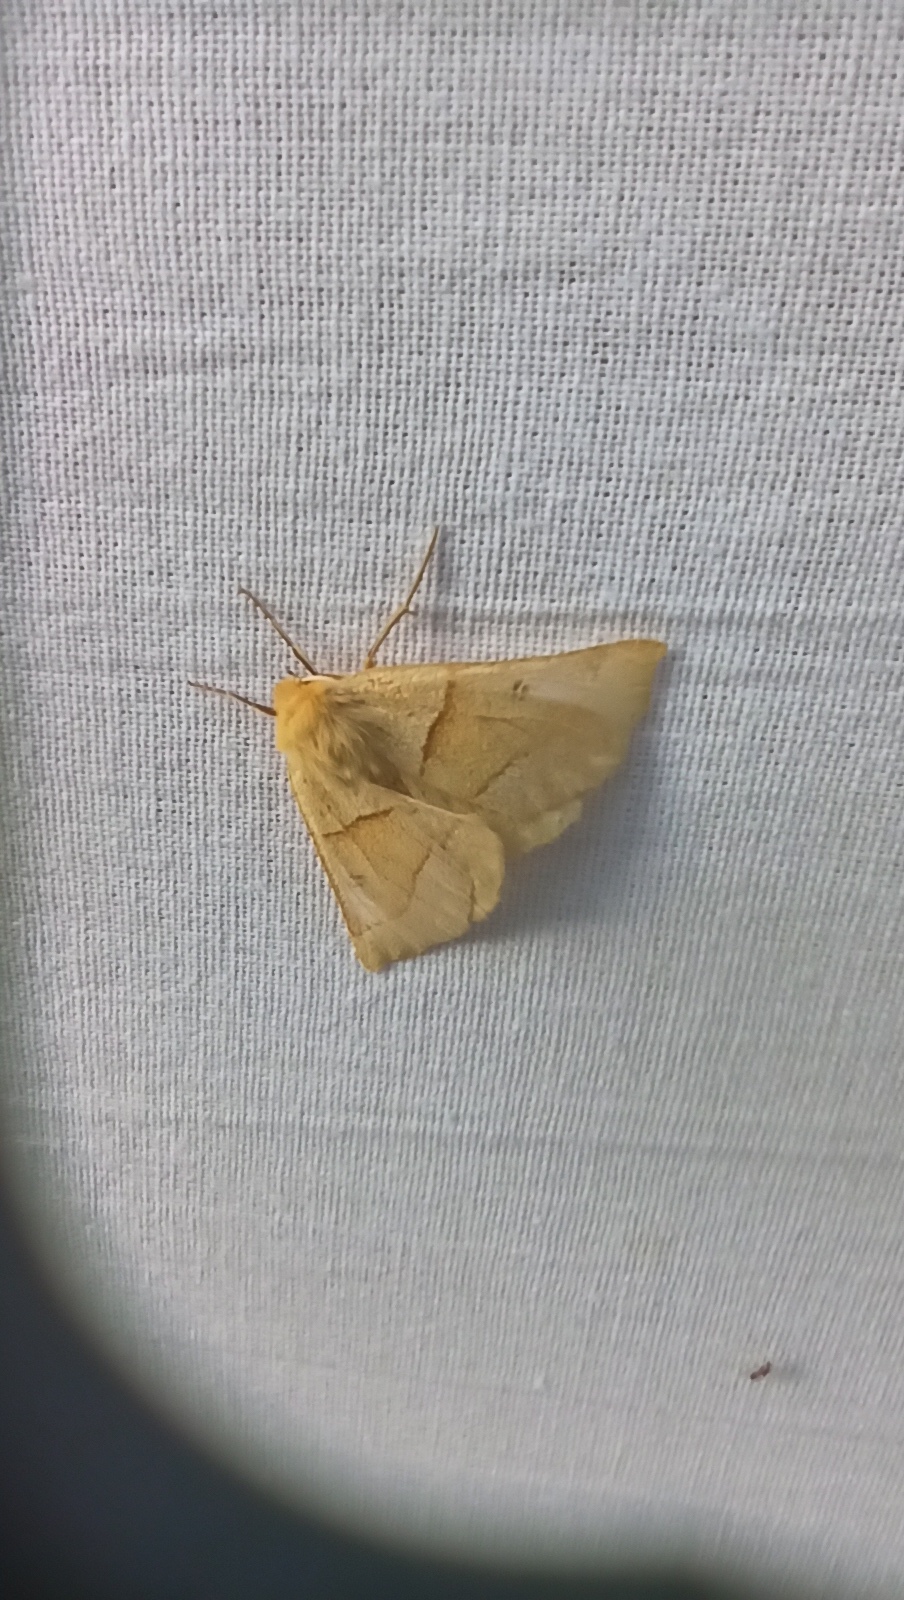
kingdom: Animalia
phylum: Arthropoda
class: Insecta
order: Lepidoptera
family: Geometridae
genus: Crocallis
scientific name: Crocallis elinguaria
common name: Scalloped oak
